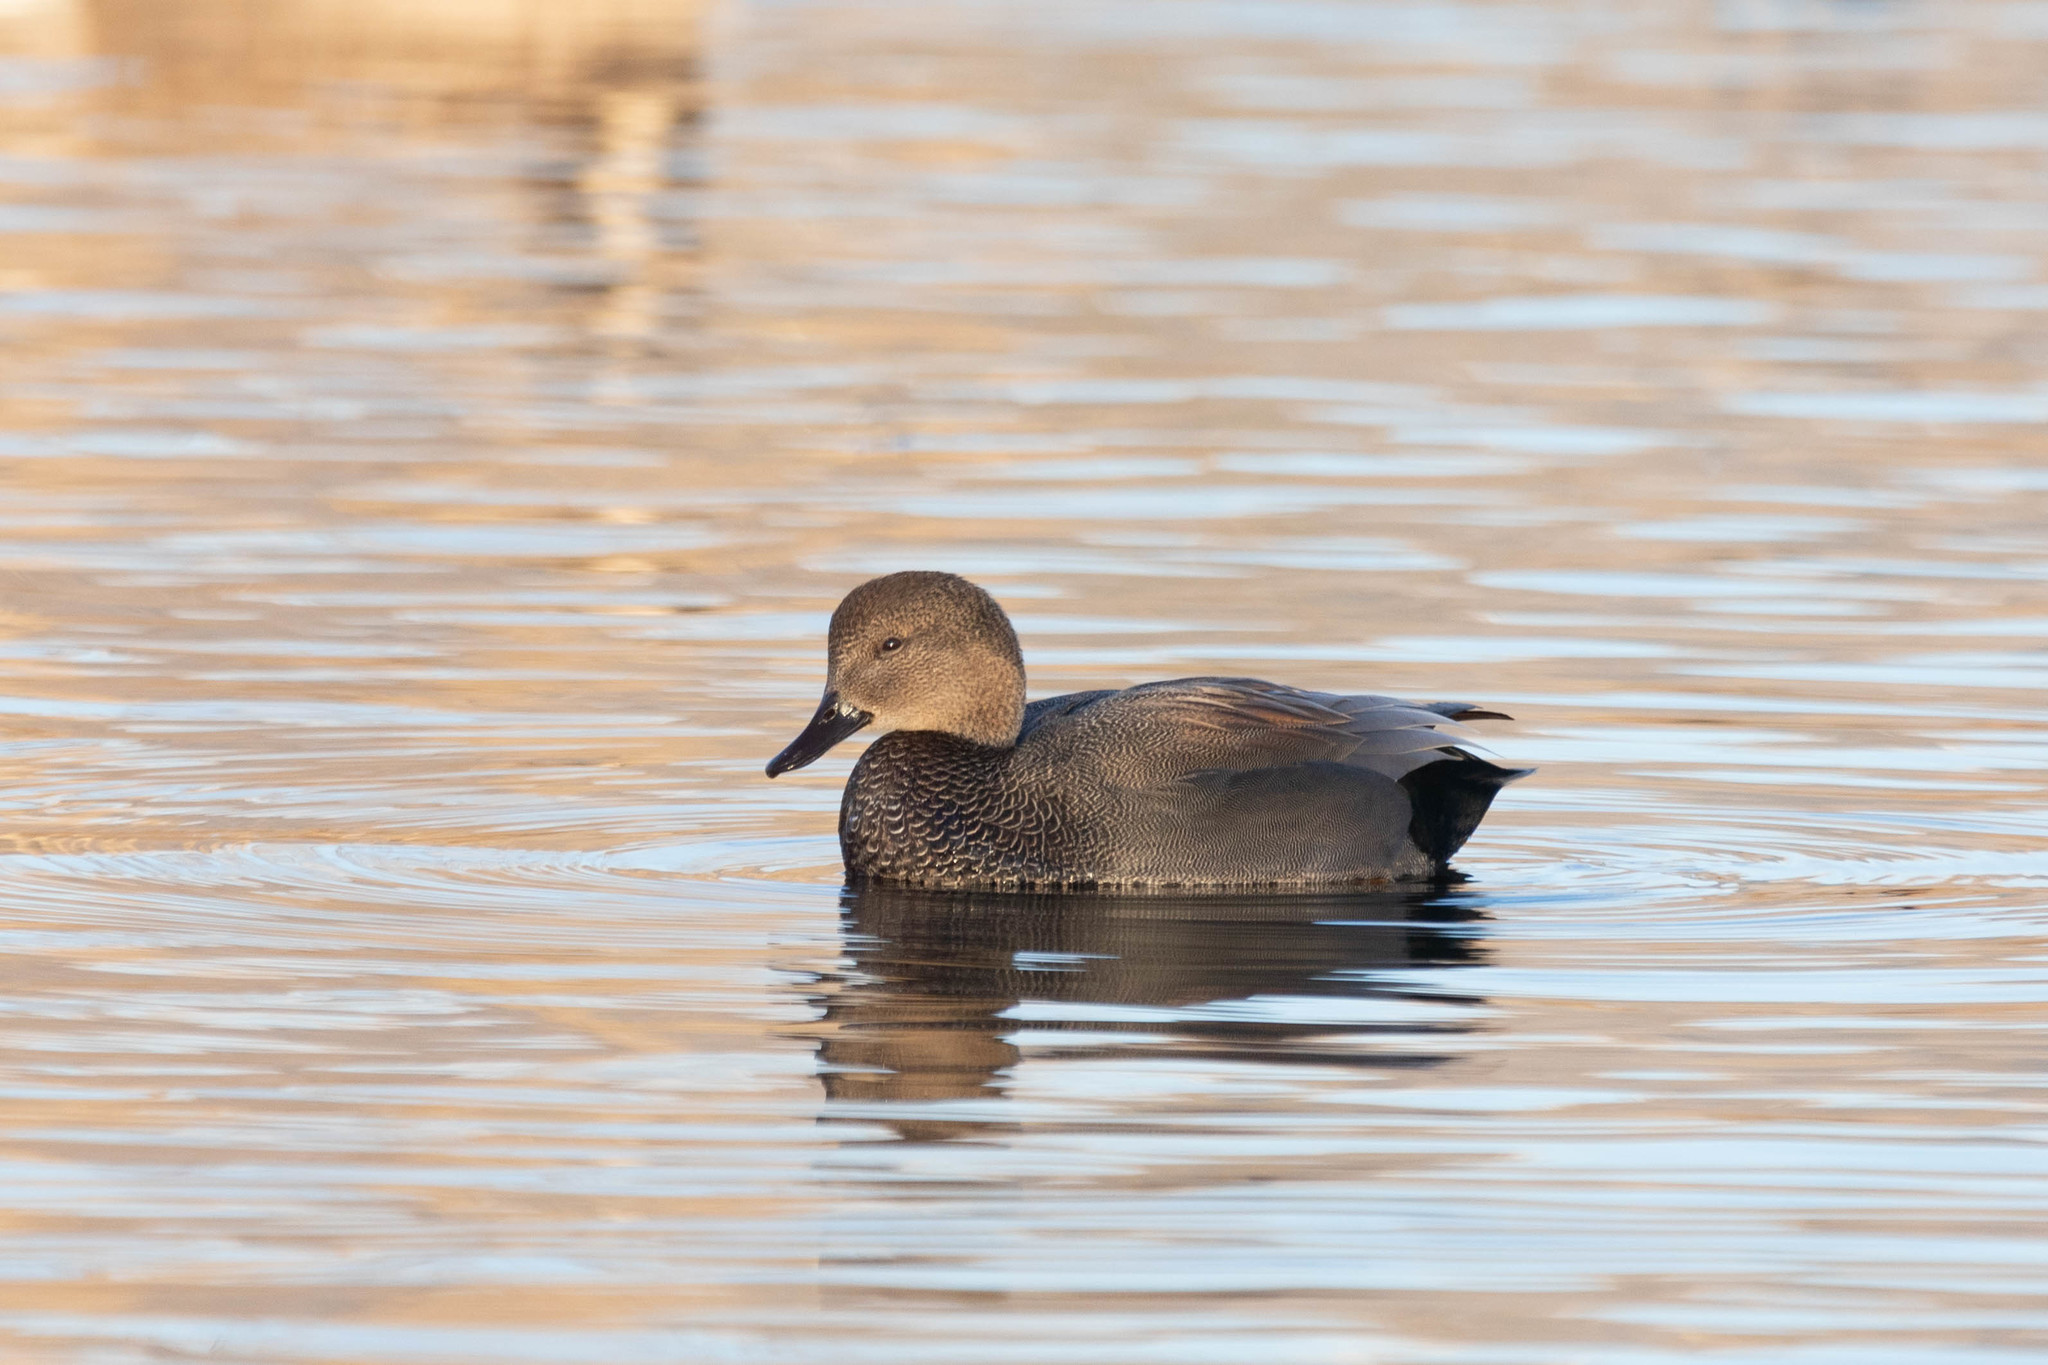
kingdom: Animalia
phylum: Chordata
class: Aves
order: Anseriformes
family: Anatidae
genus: Mareca
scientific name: Mareca strepera
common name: Gadwall
